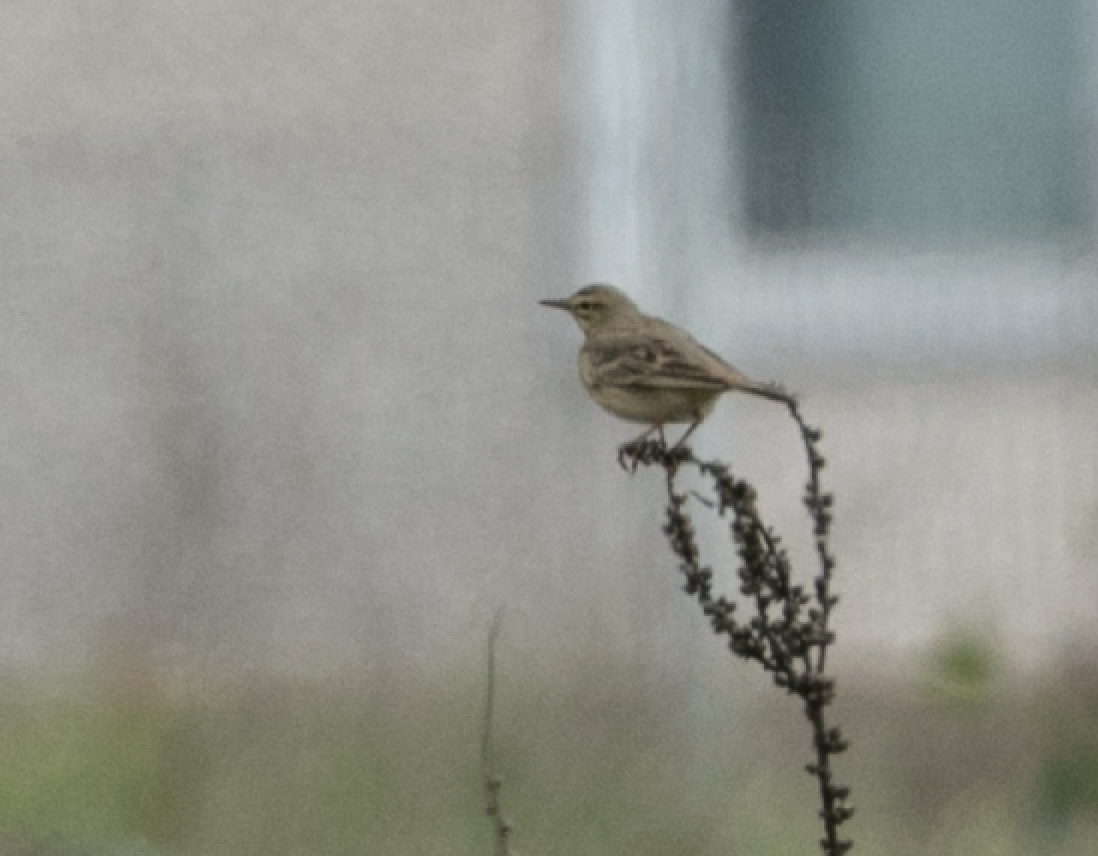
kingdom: Animalia
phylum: Chordata
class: Aves
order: Passeriformes
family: Motacillidae
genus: Anthus
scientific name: Anthus campestris
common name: Tawny pipit
